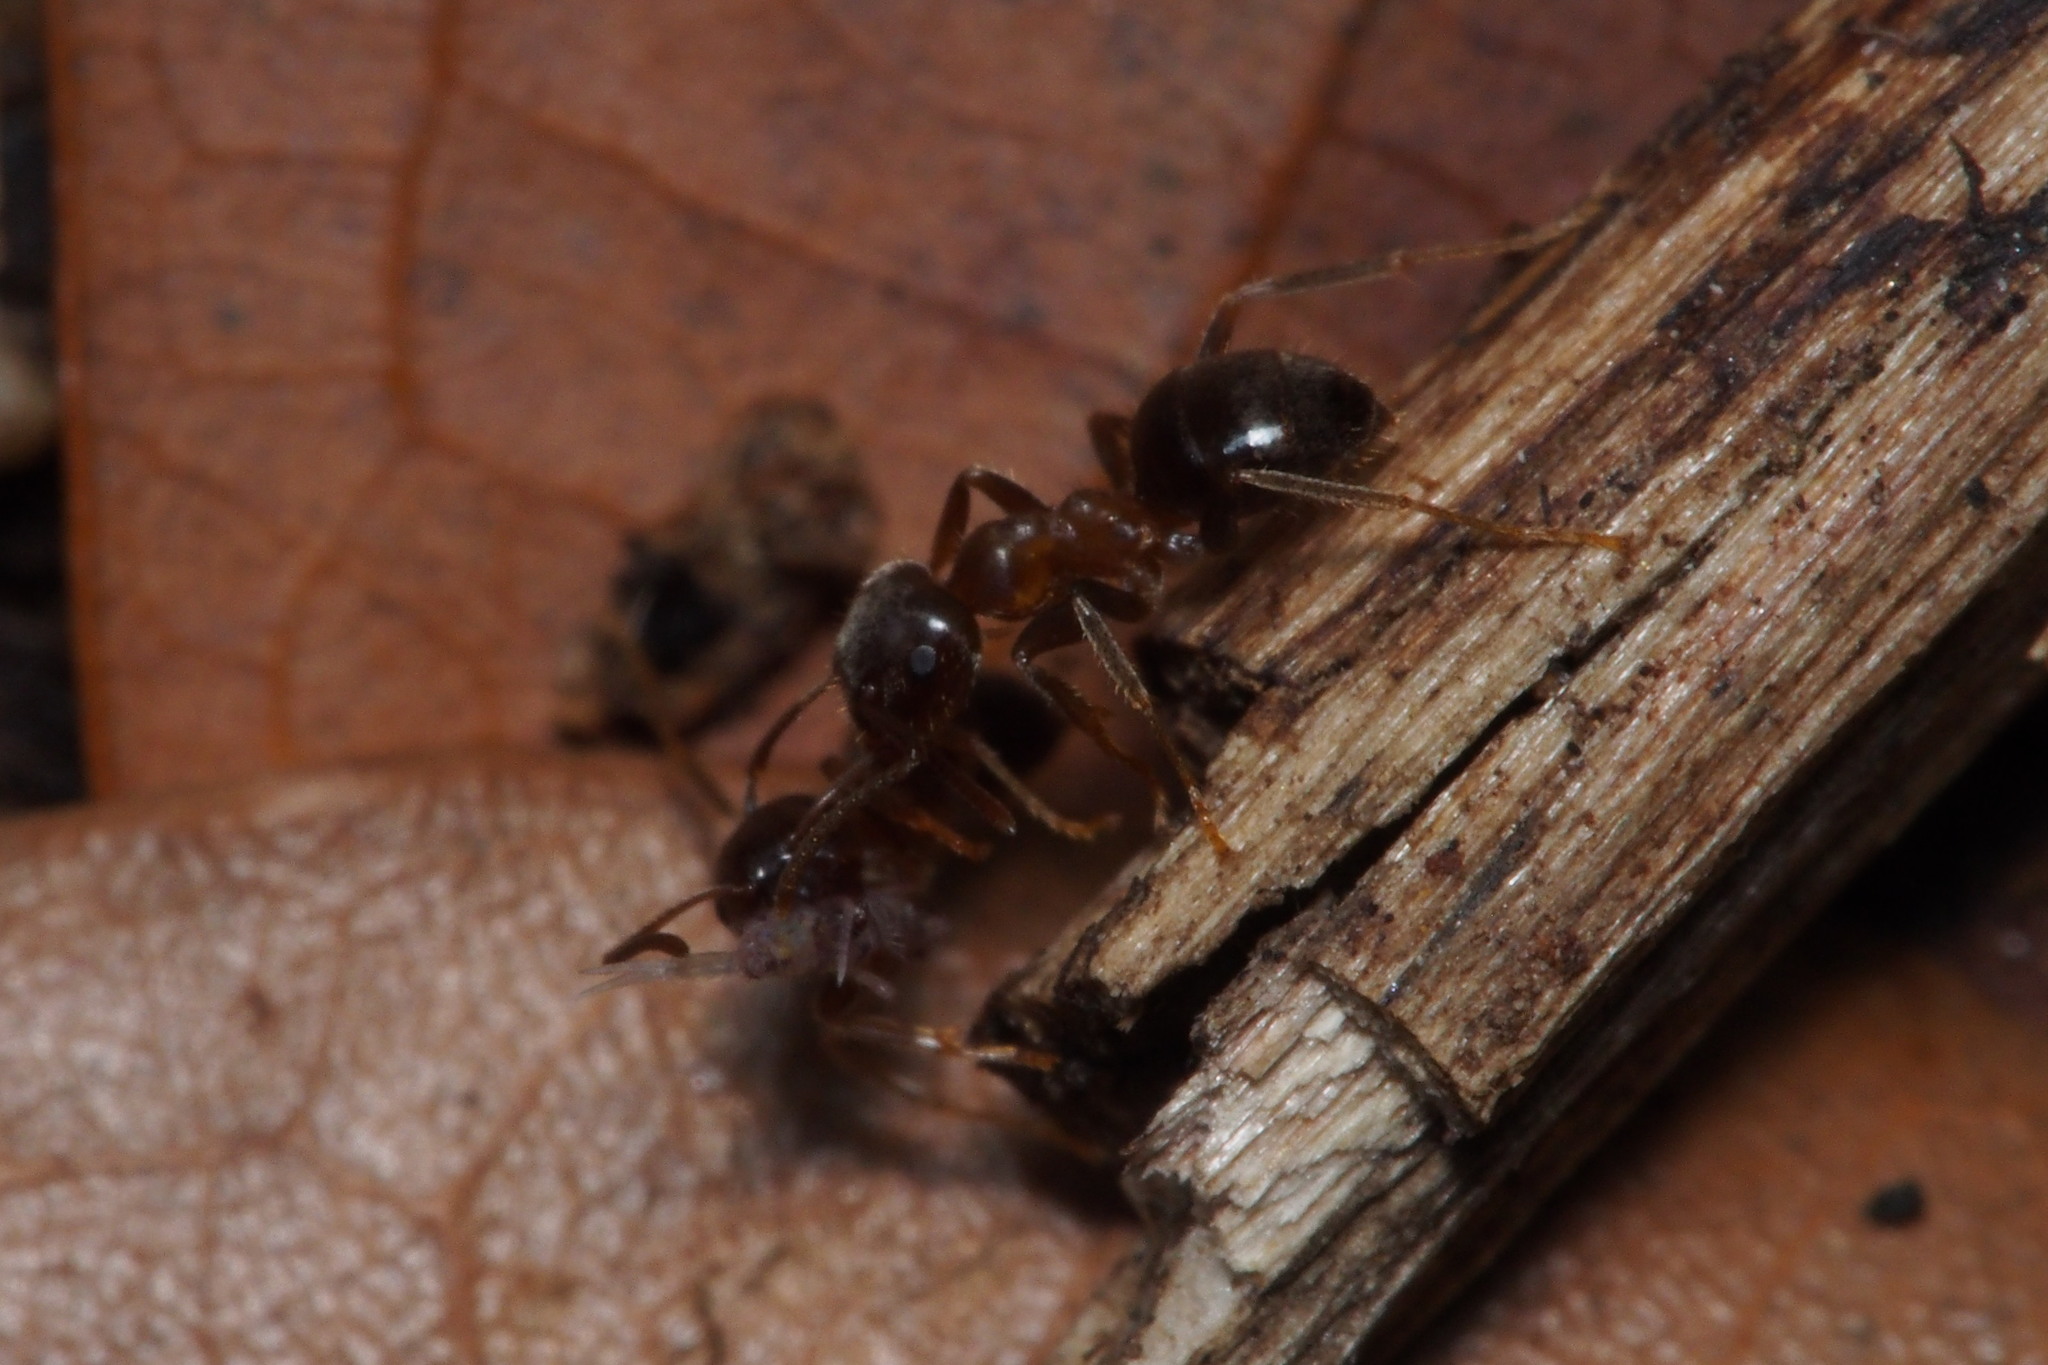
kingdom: Animalia
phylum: Arthropoda
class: Insecta
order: Hymenoptera
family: Formicidae
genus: Lasius
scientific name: Lasius hayashi
